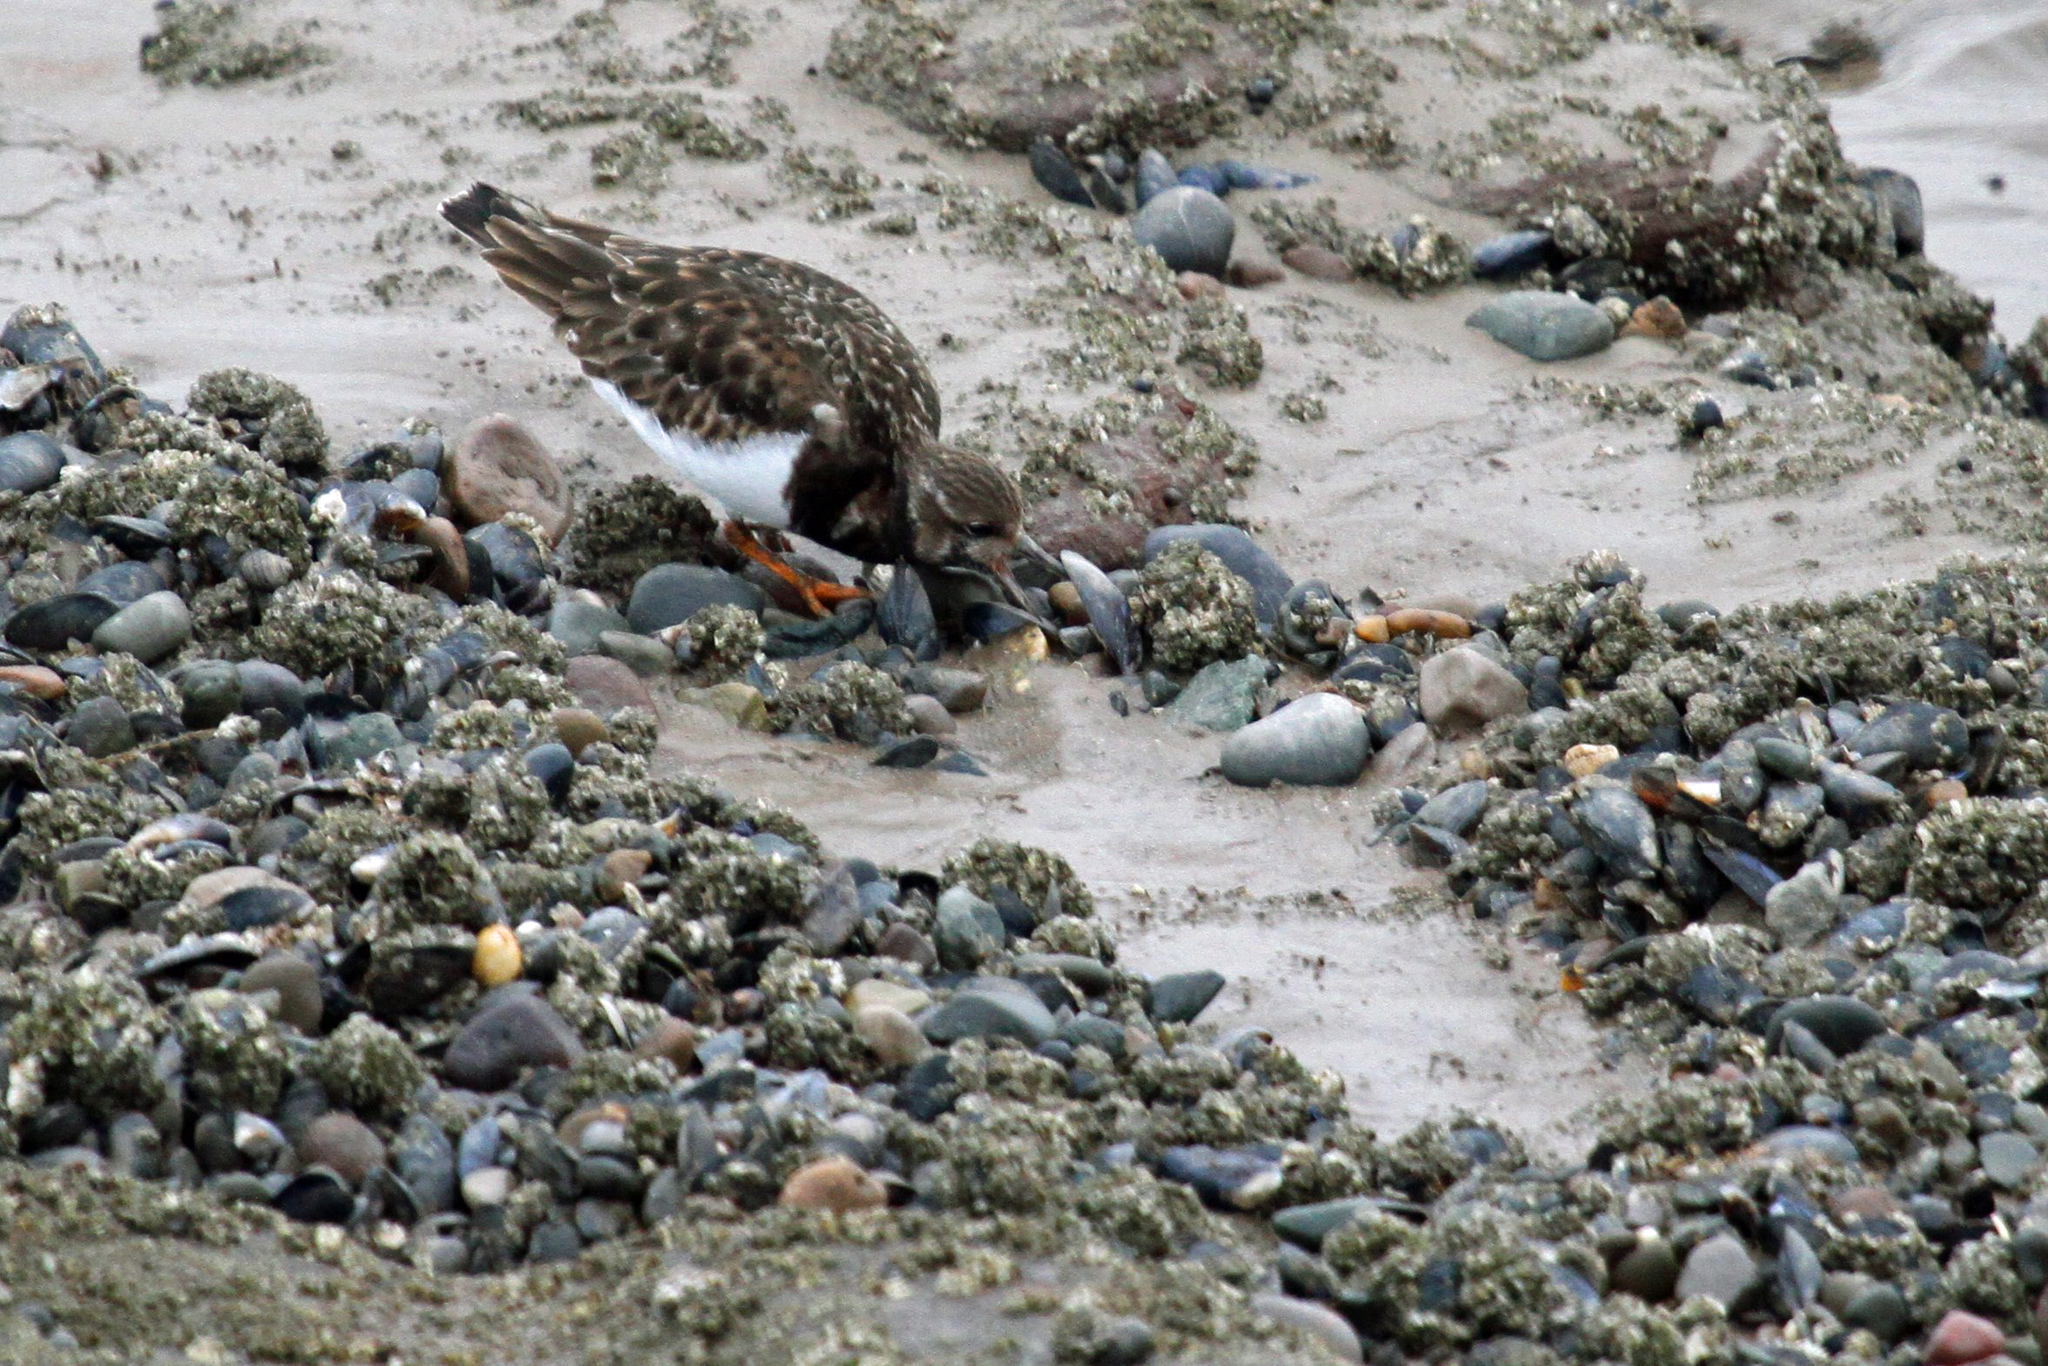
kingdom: Animalia
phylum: Chordata
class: Aves
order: Charadriiformes
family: Scolopacidae
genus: Arenaria
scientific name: Arenaria interpres
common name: Ruddy turnstone
